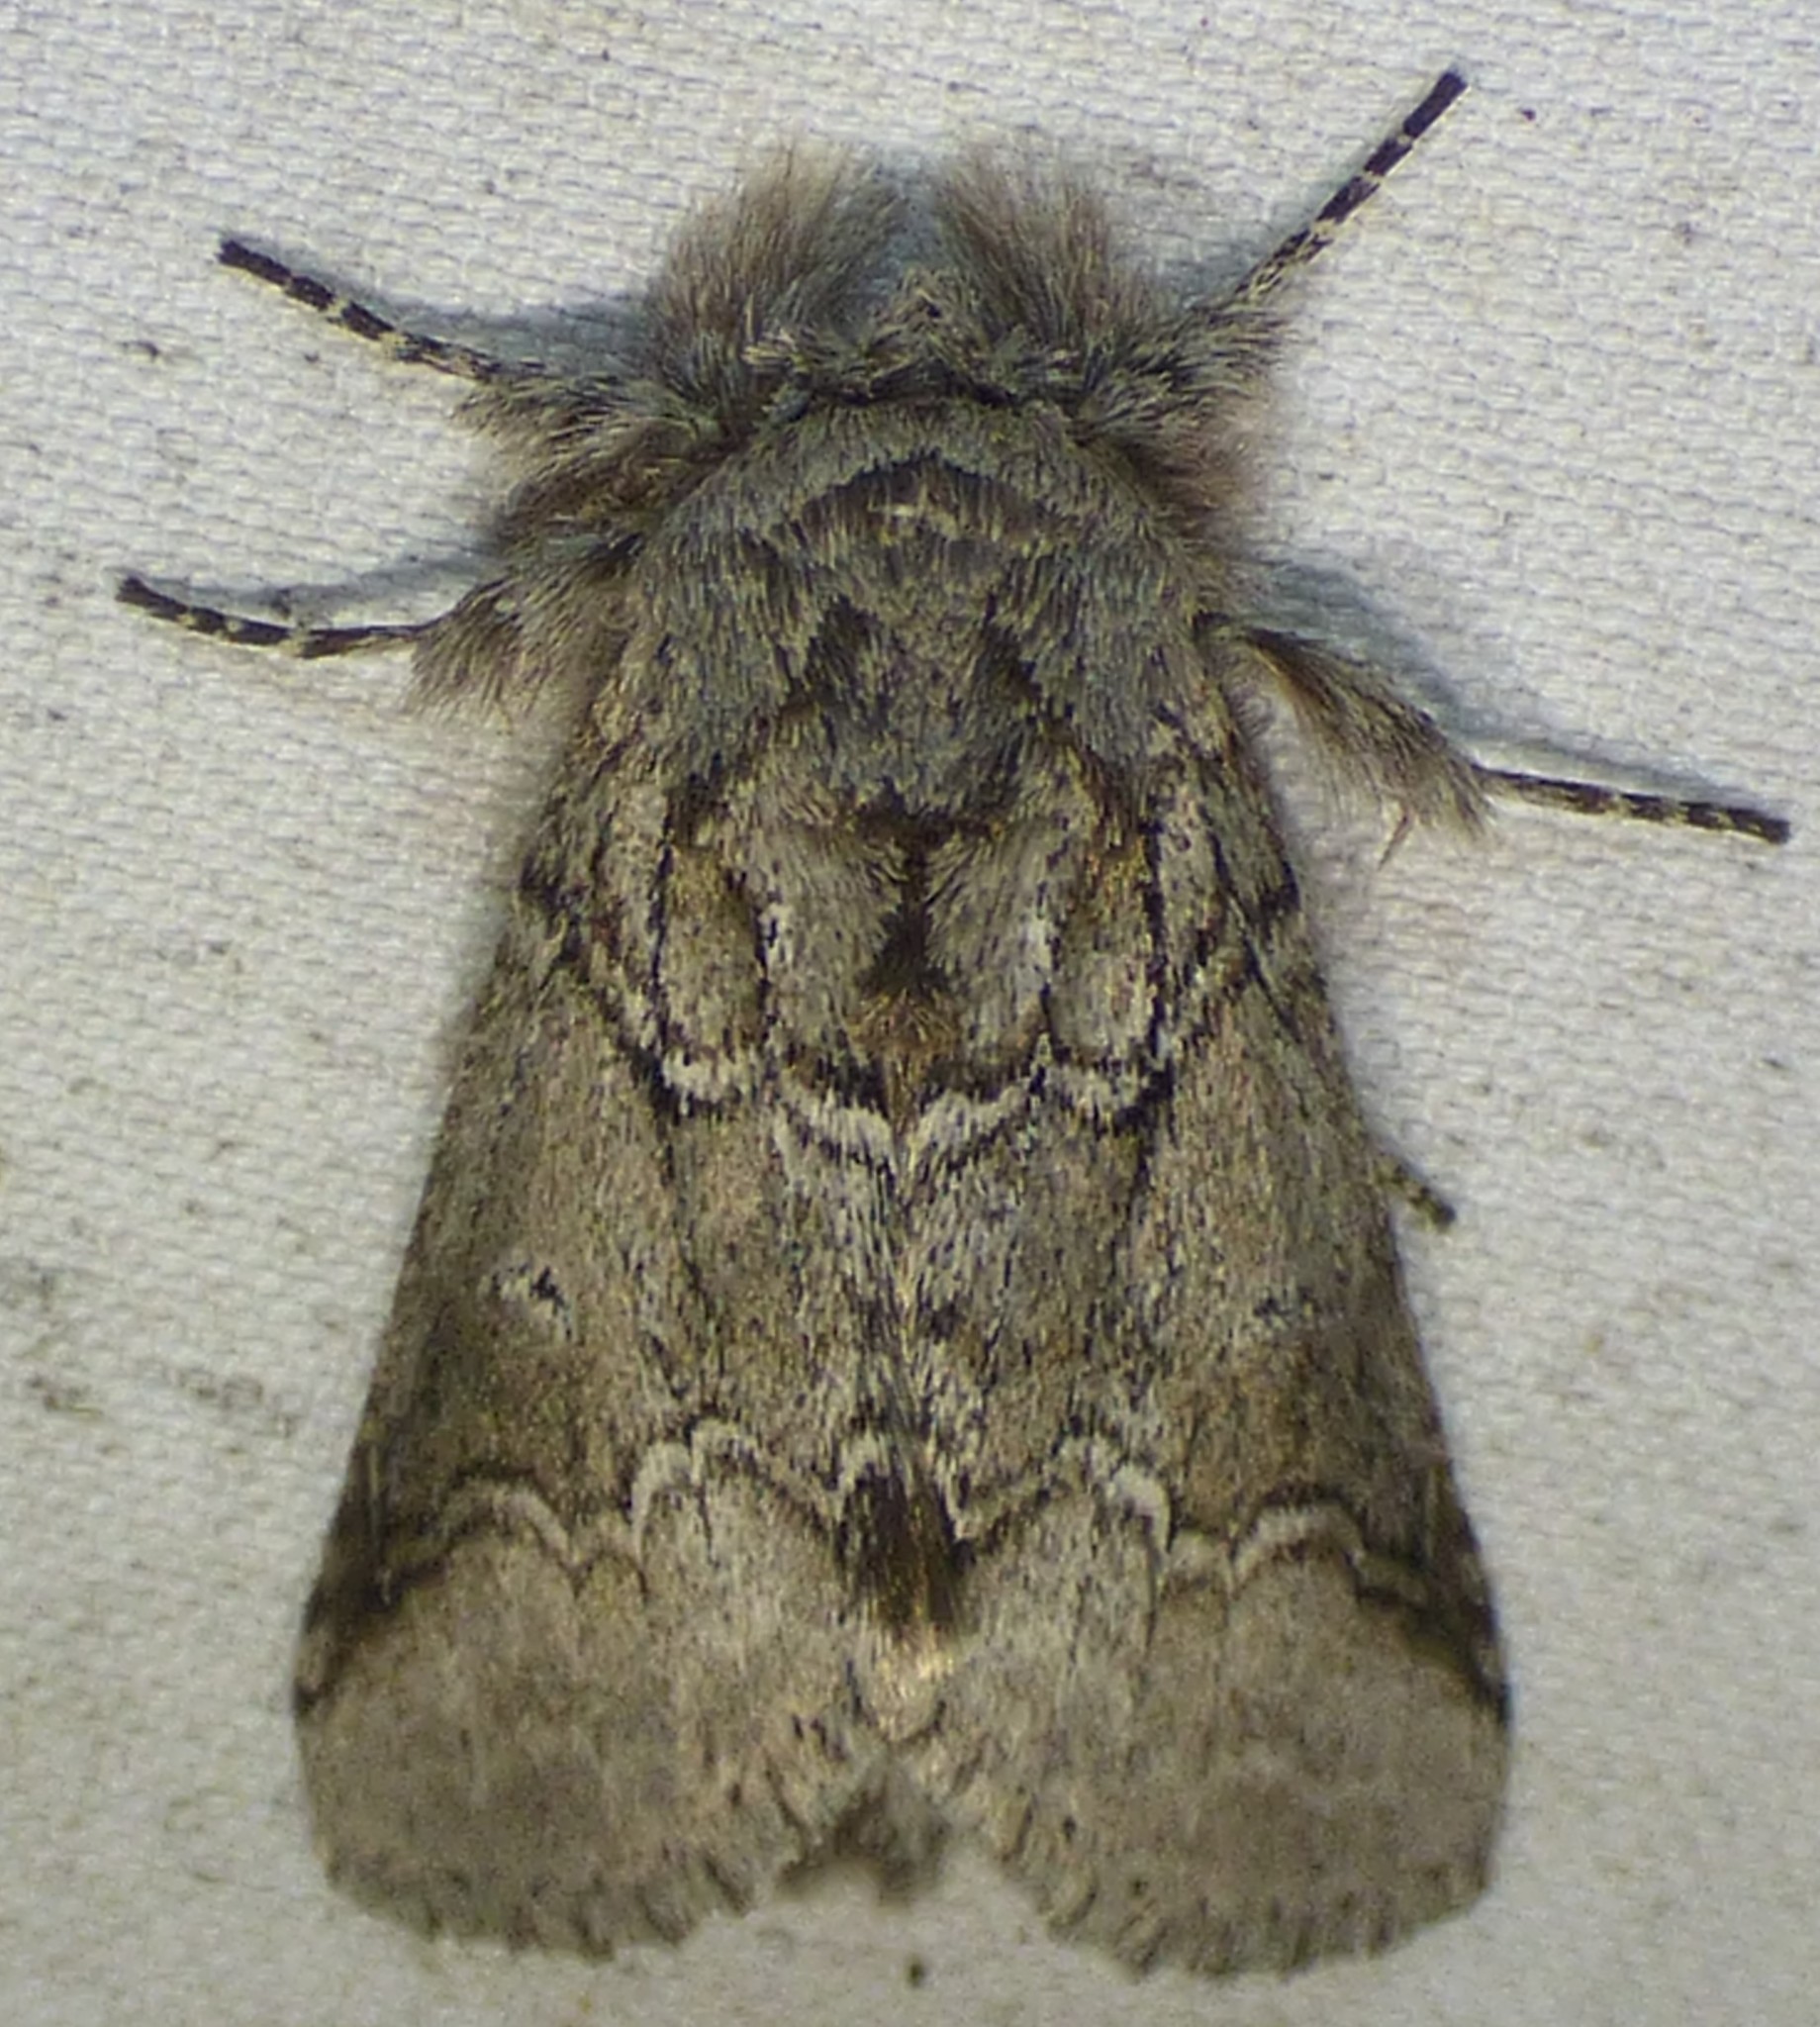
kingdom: Animalia
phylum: Arthropoda
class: Insecta
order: Lepidoptera
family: Notodontidae
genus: Lochmaeus
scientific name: Lochmaeus bilineata
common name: Double-lined prominent
